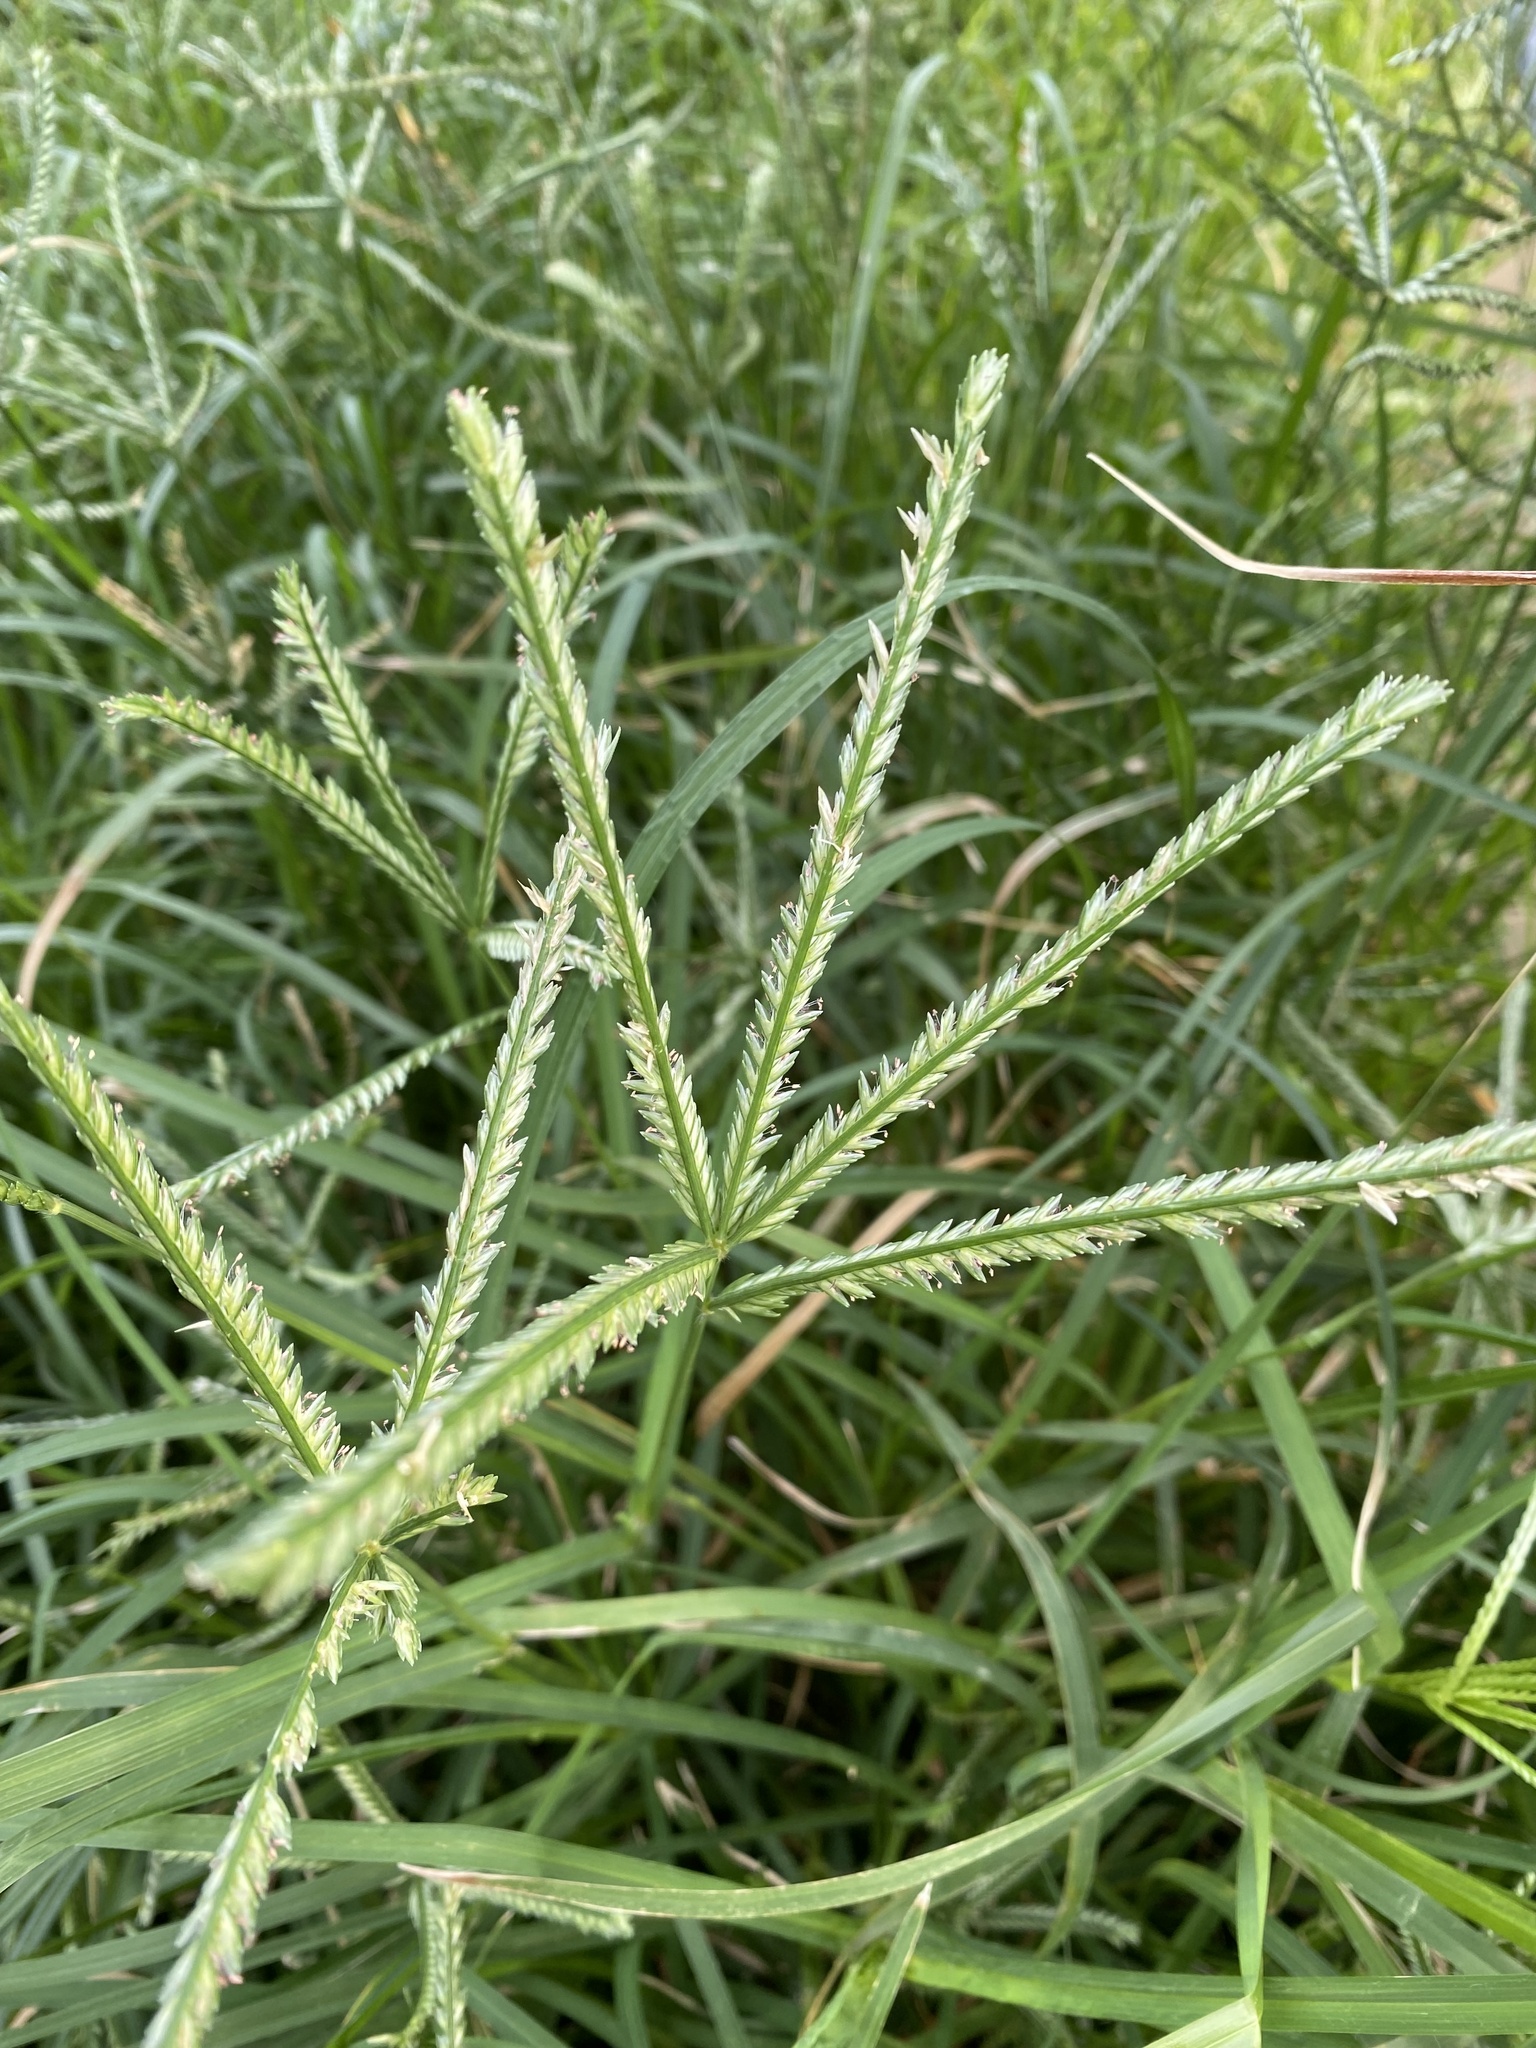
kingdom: Plantae
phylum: Tracheophyta
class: Liliopsida
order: Poales
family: Poaceae
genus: Eleusine
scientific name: Eleusine indica
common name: Yard-grass
